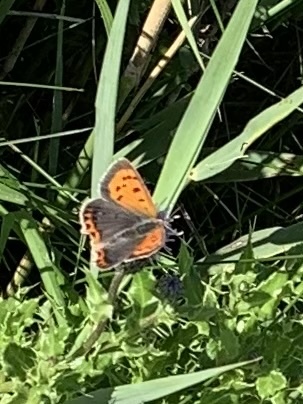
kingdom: Animalia
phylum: Arthropoda
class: Insecta
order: Lepidoptera
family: Lycaenidae
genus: Lycaena
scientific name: Lycaena phlaeas
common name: Small copper
